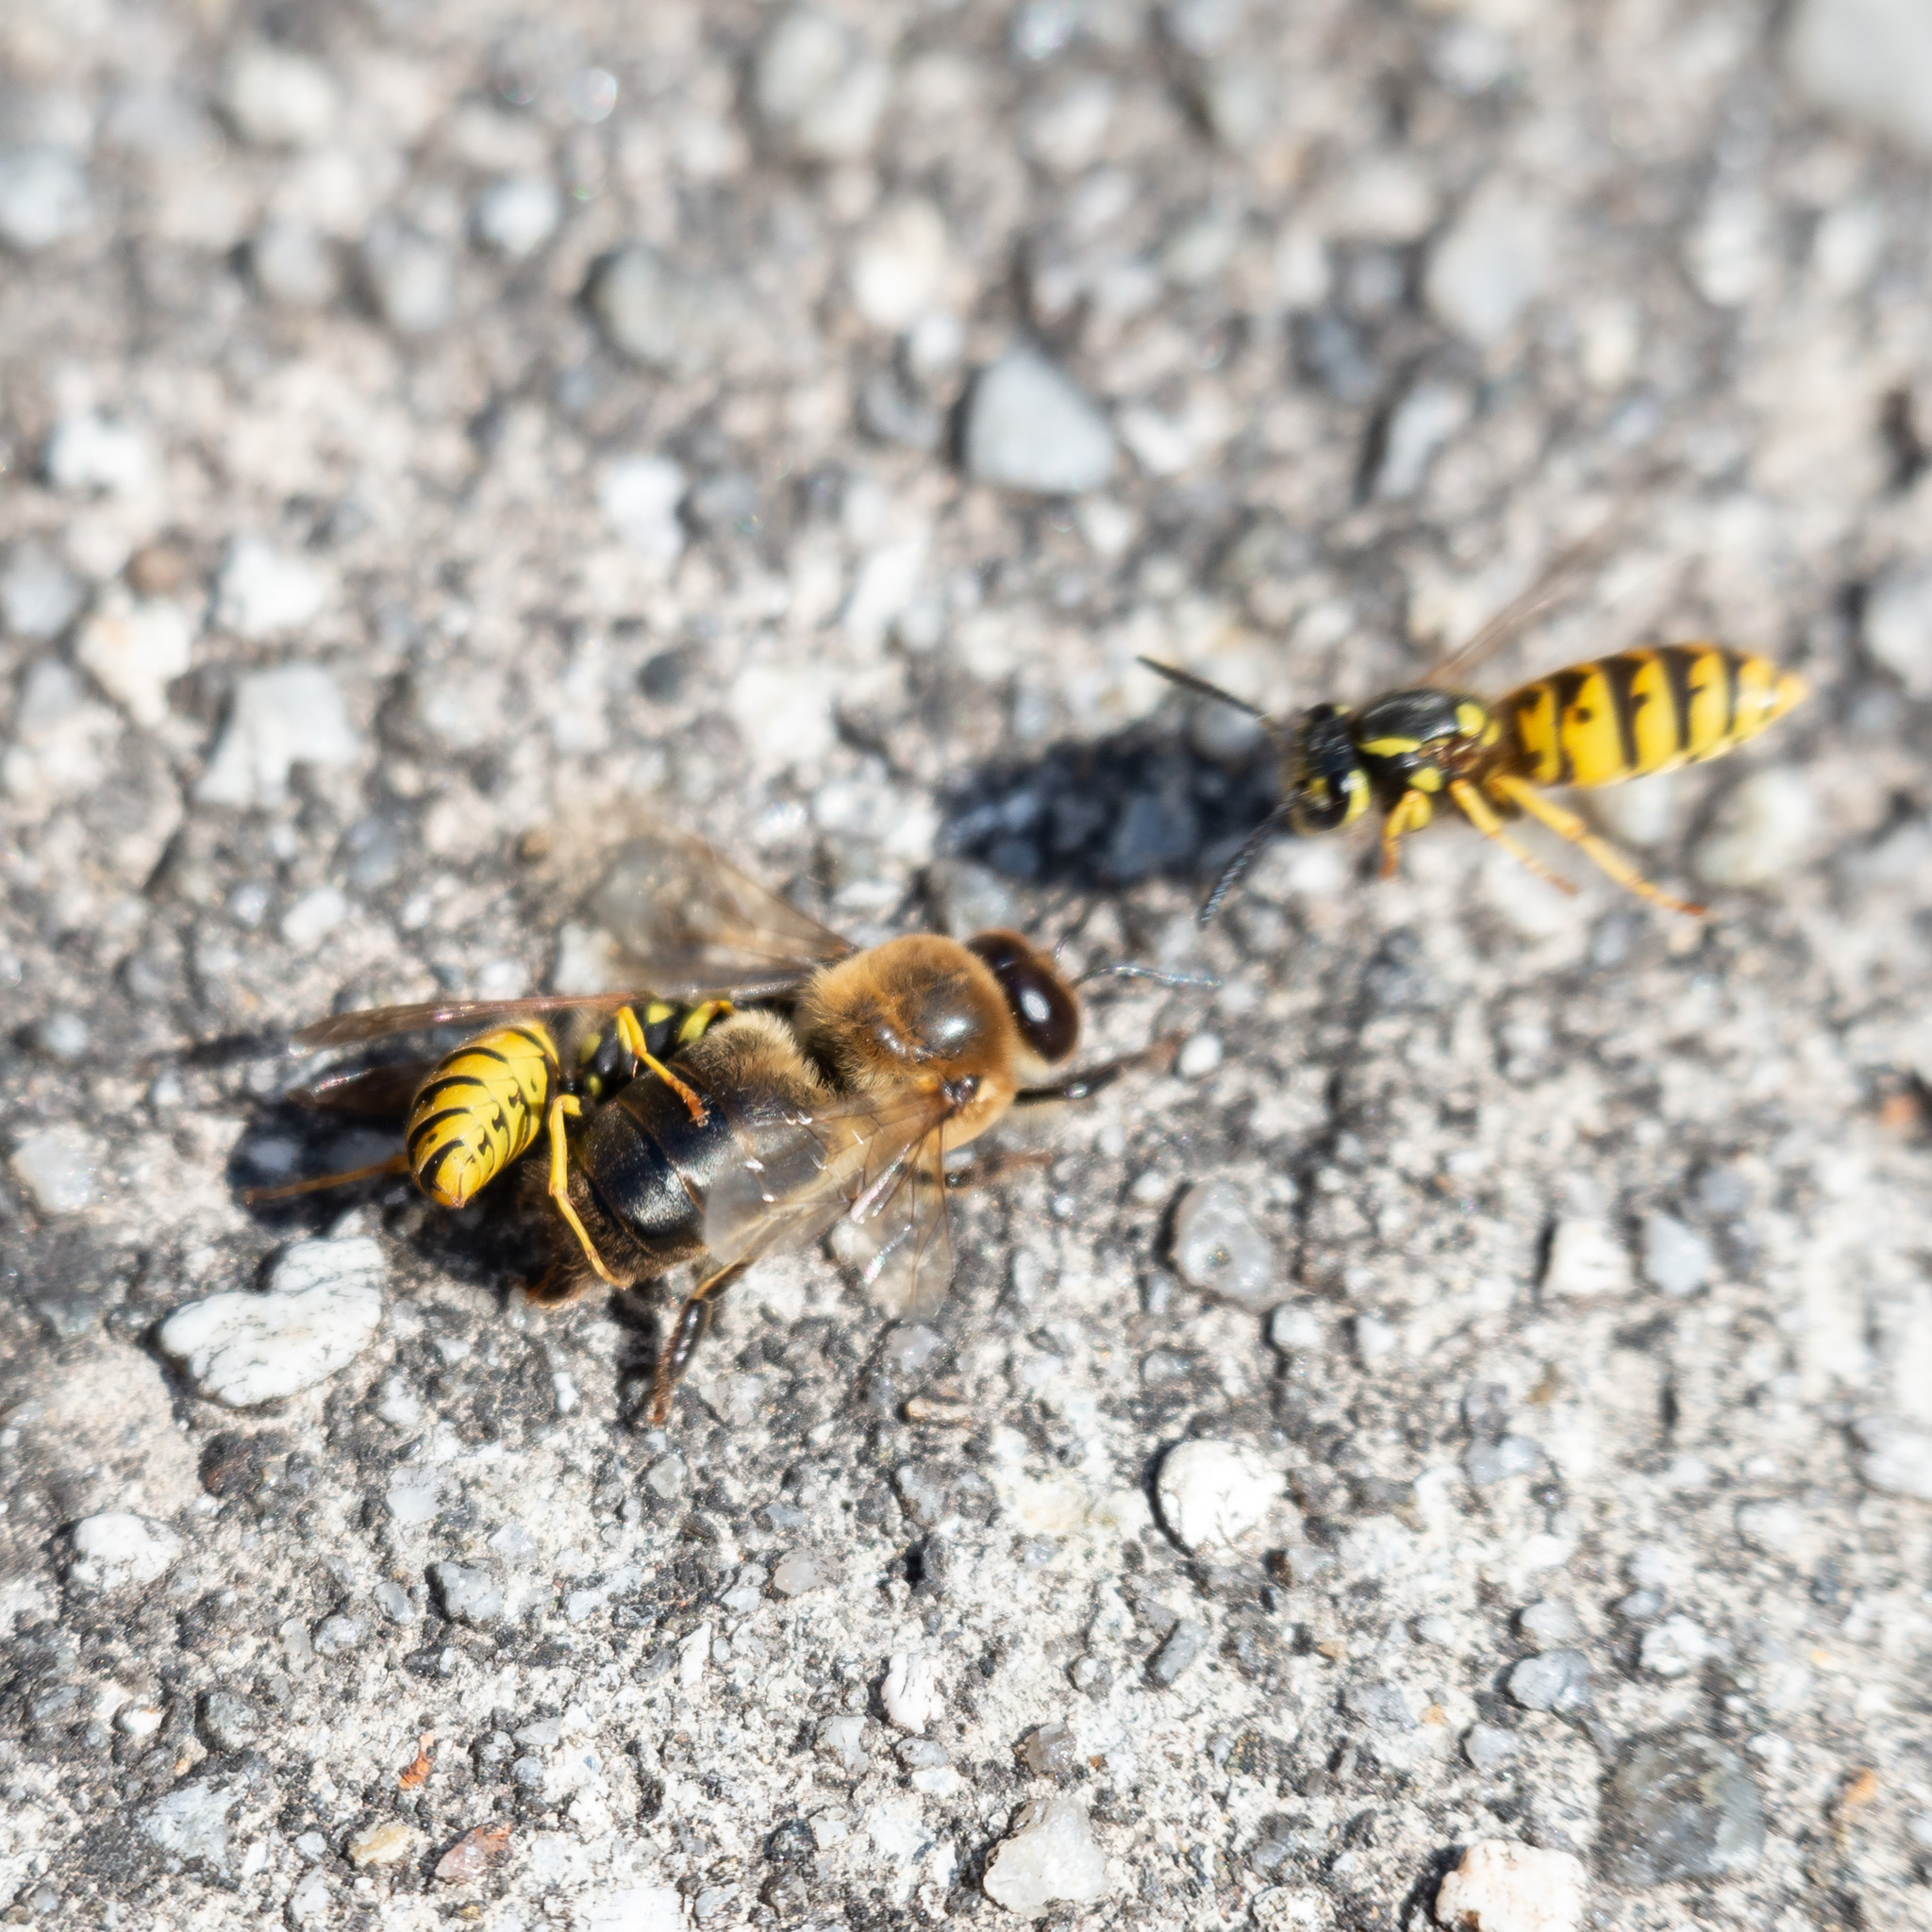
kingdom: Animalia
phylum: Arthropoda
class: Insecta
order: Hymenoptera
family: Apidae
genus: Apis
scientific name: Apis mellifera
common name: Honey bee
